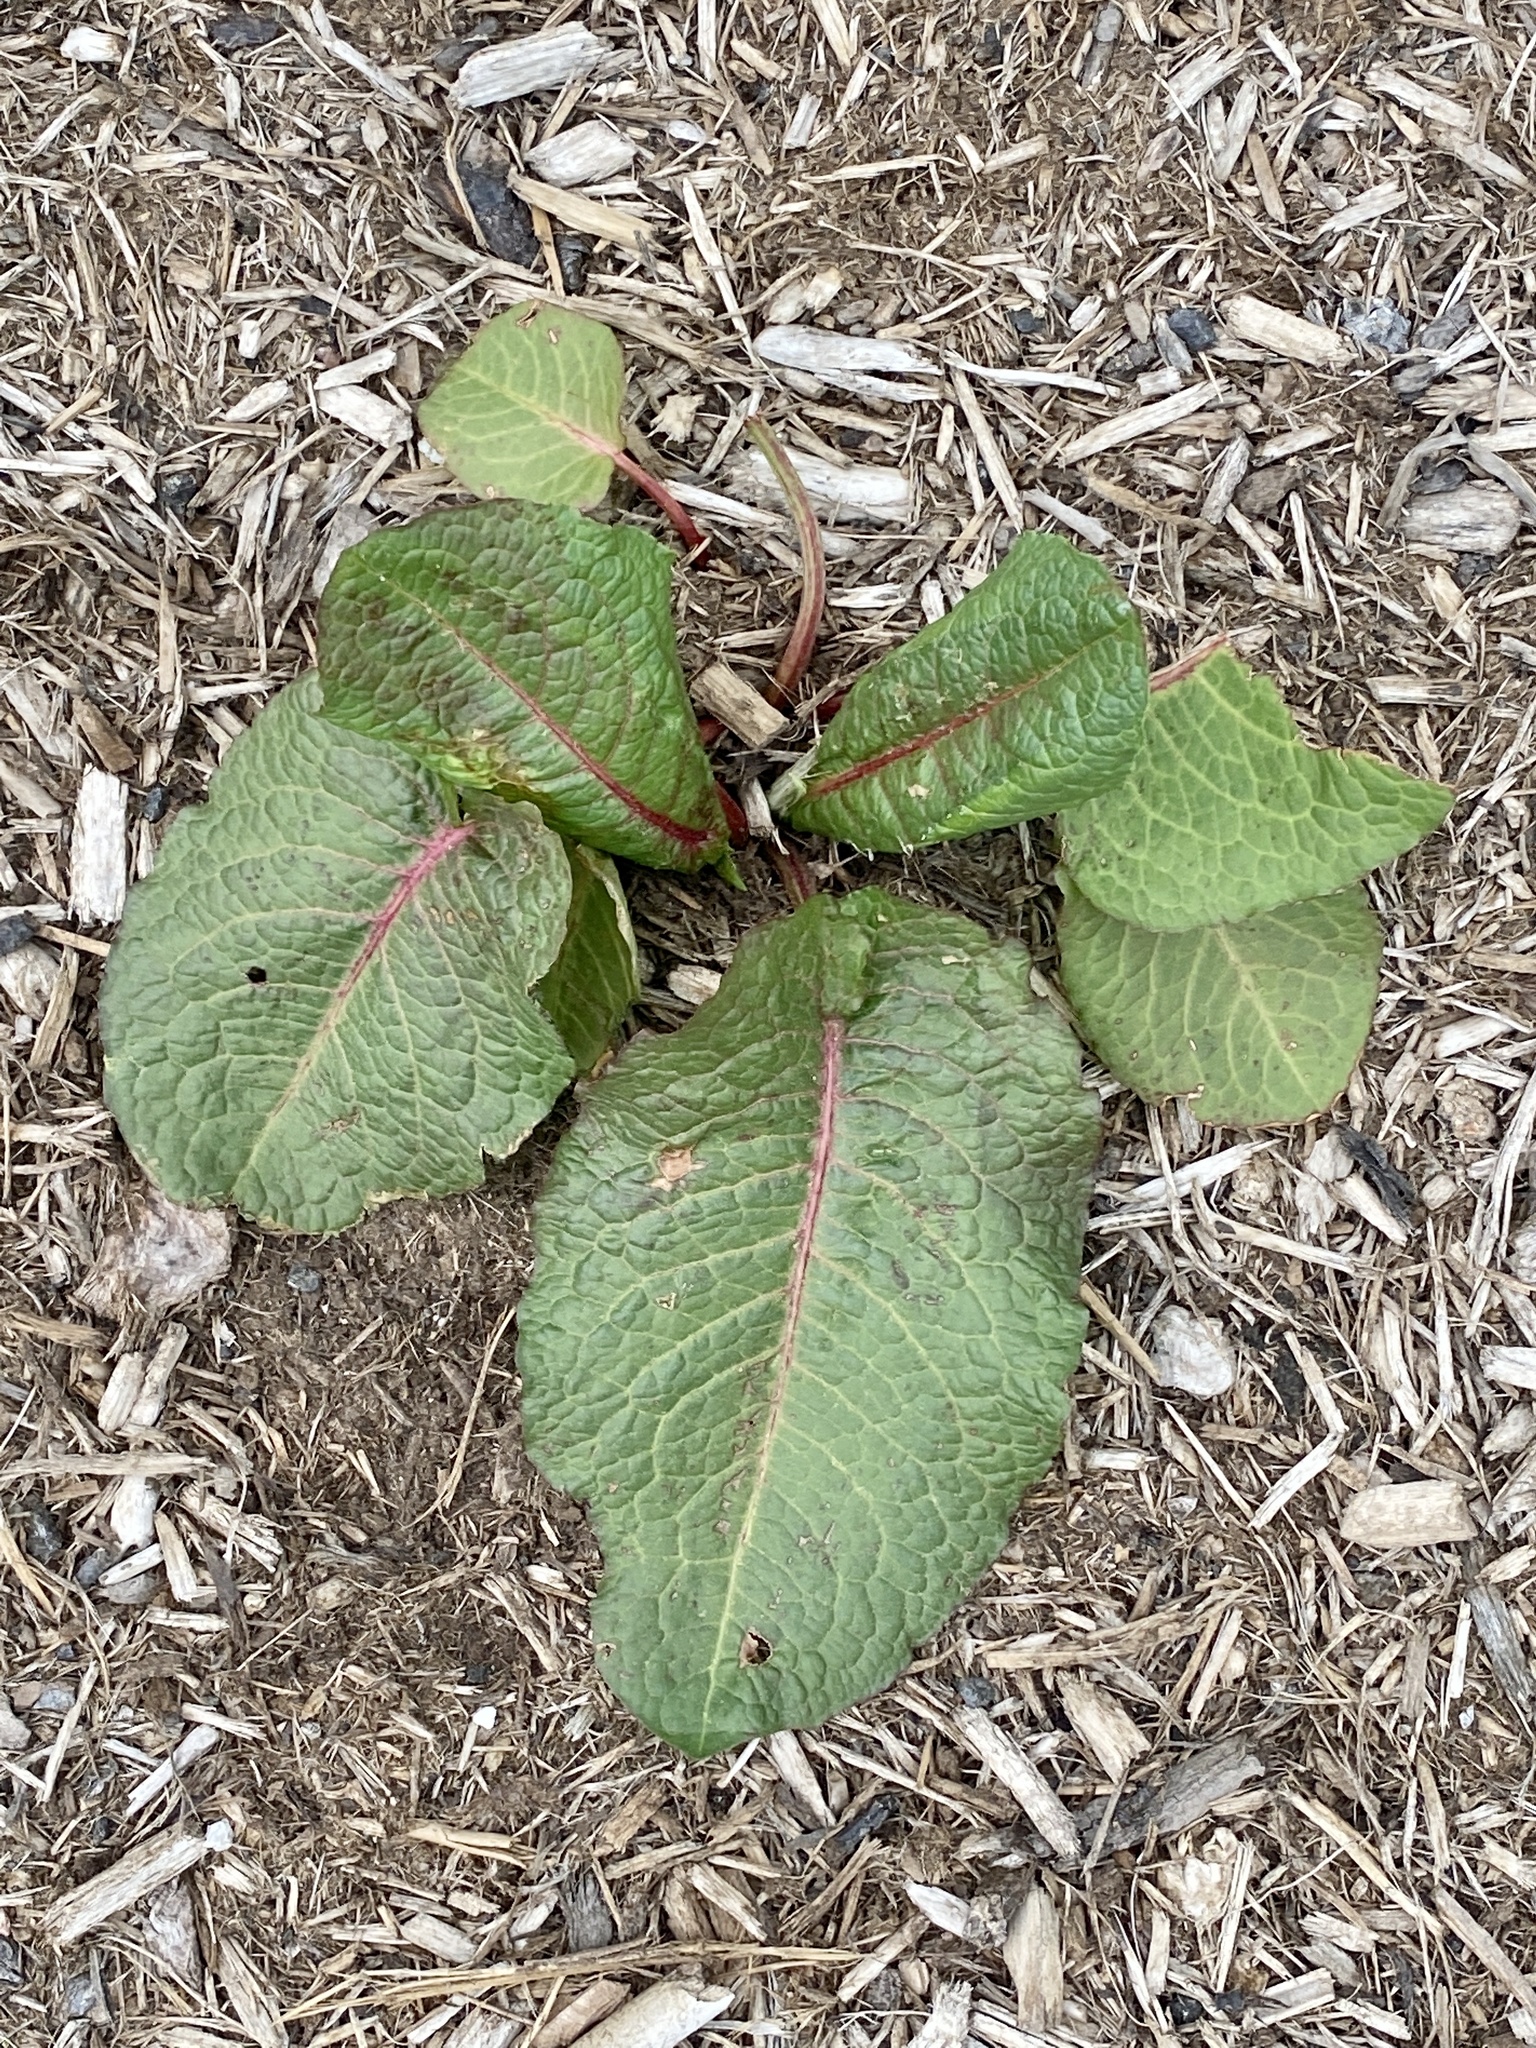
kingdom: Plantae
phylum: Tracheophyta
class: Magnoliopsida
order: Caryophyllales
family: Polygonaceae
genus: Rumex
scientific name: Rumex obtusifolius
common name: Bitter dock
